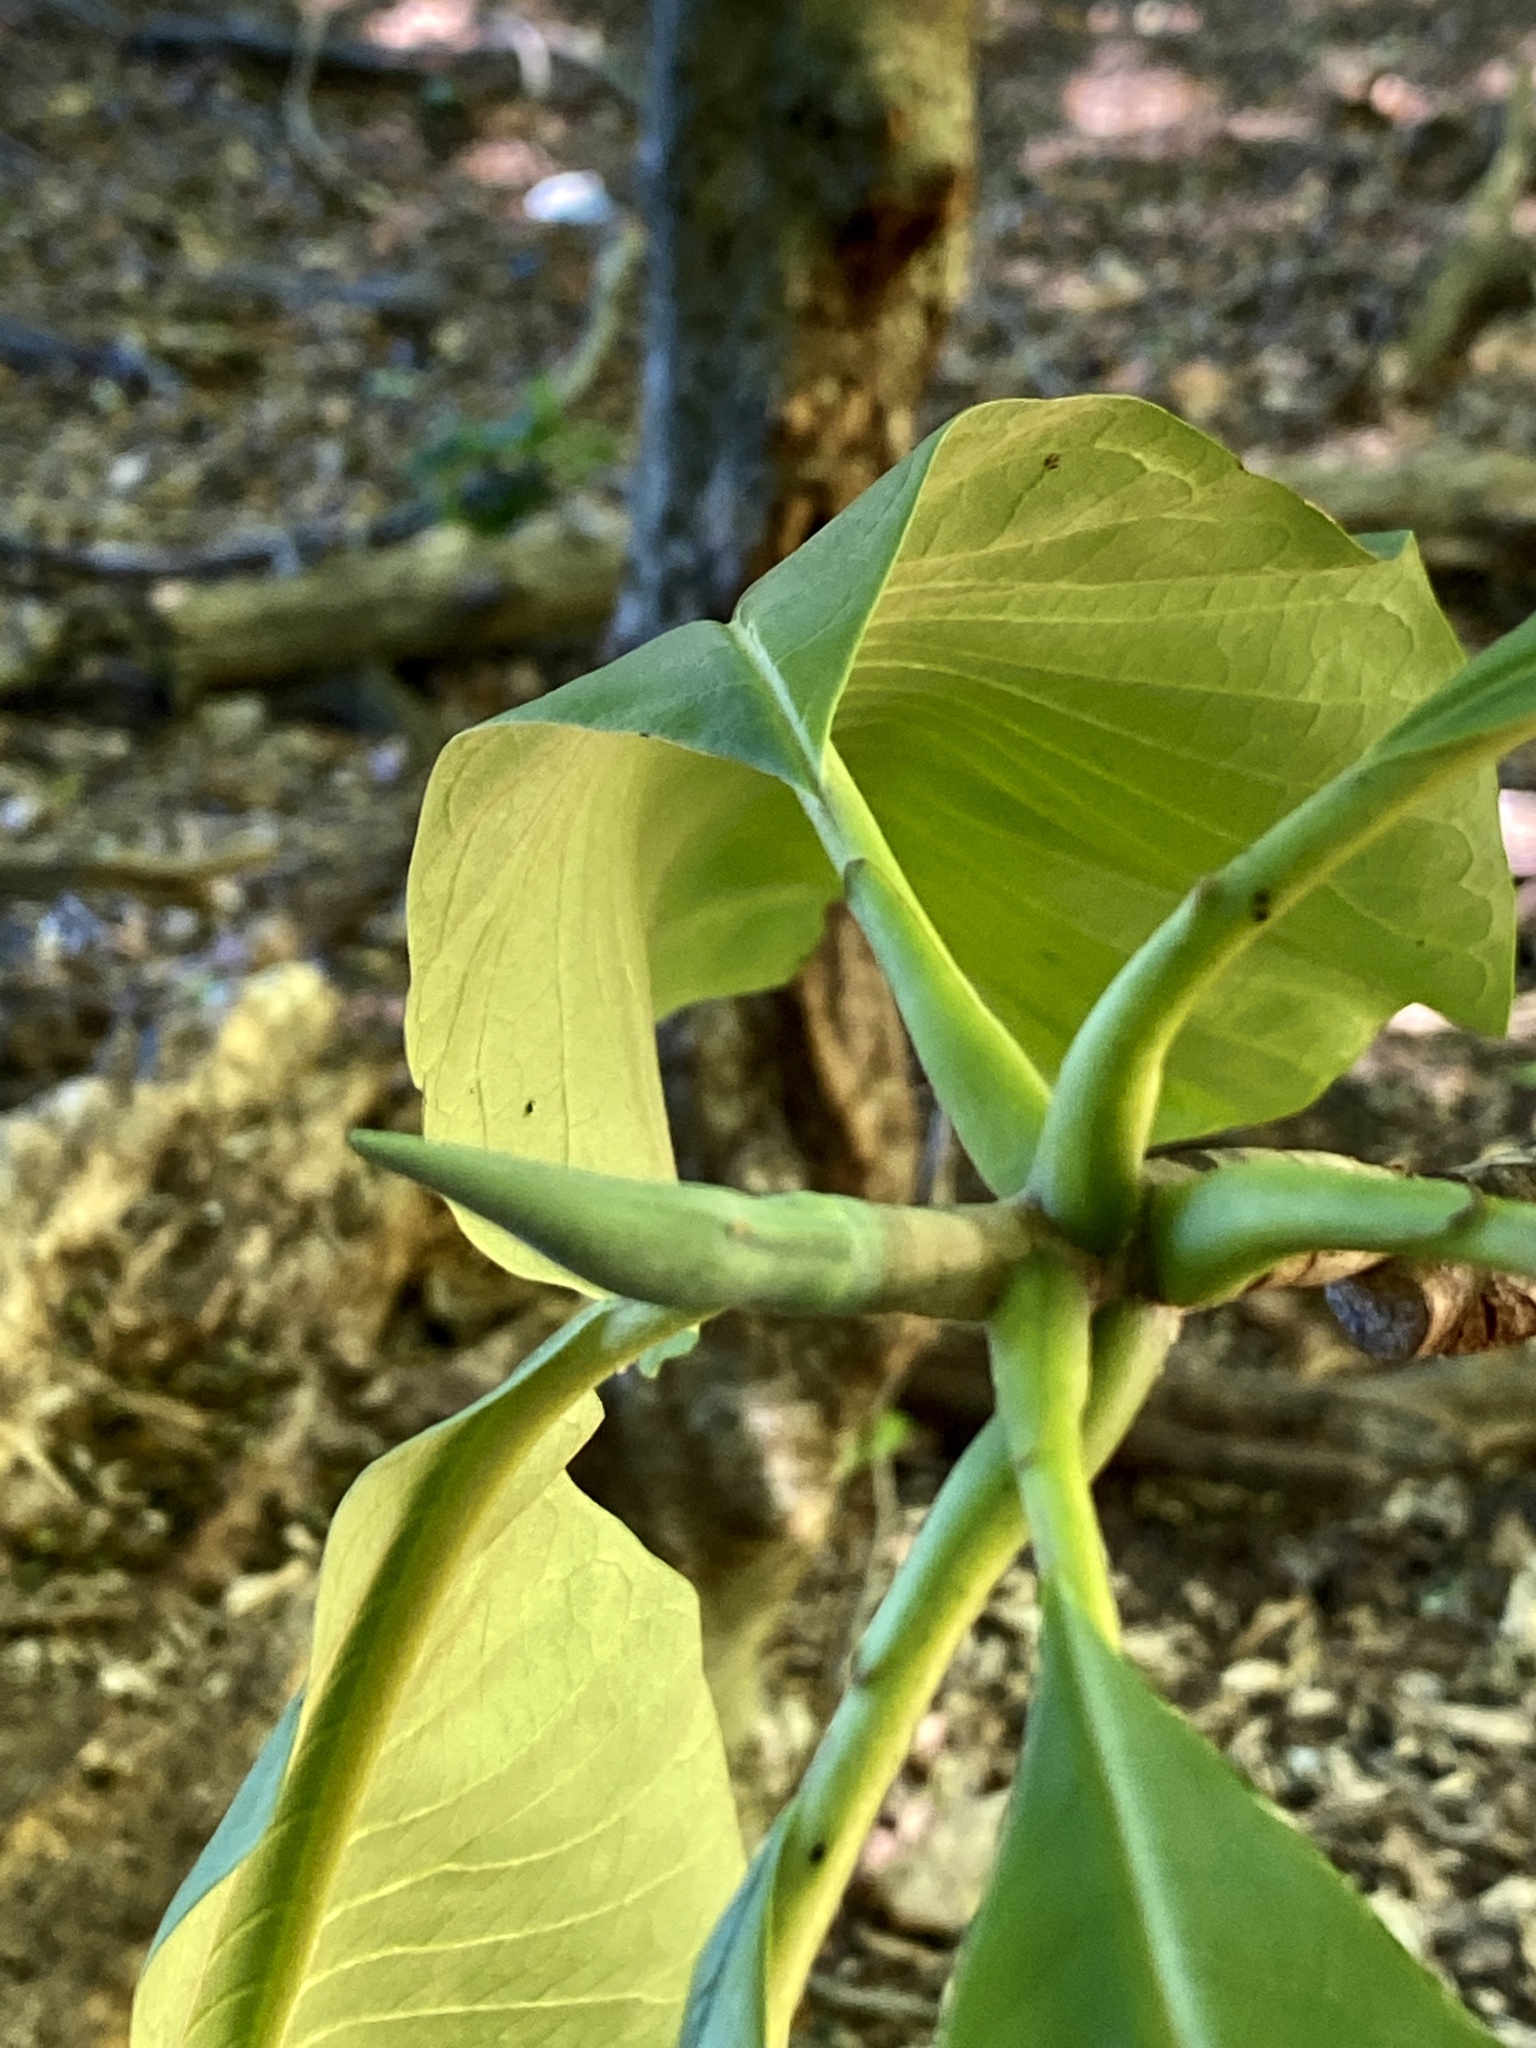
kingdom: Plantae
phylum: Tracheophyta
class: Magnoliopsida
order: Magnoliales
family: Magnoliaceae
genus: Magnolia
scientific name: Magnolia tripetala
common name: Umbrella magnolia
